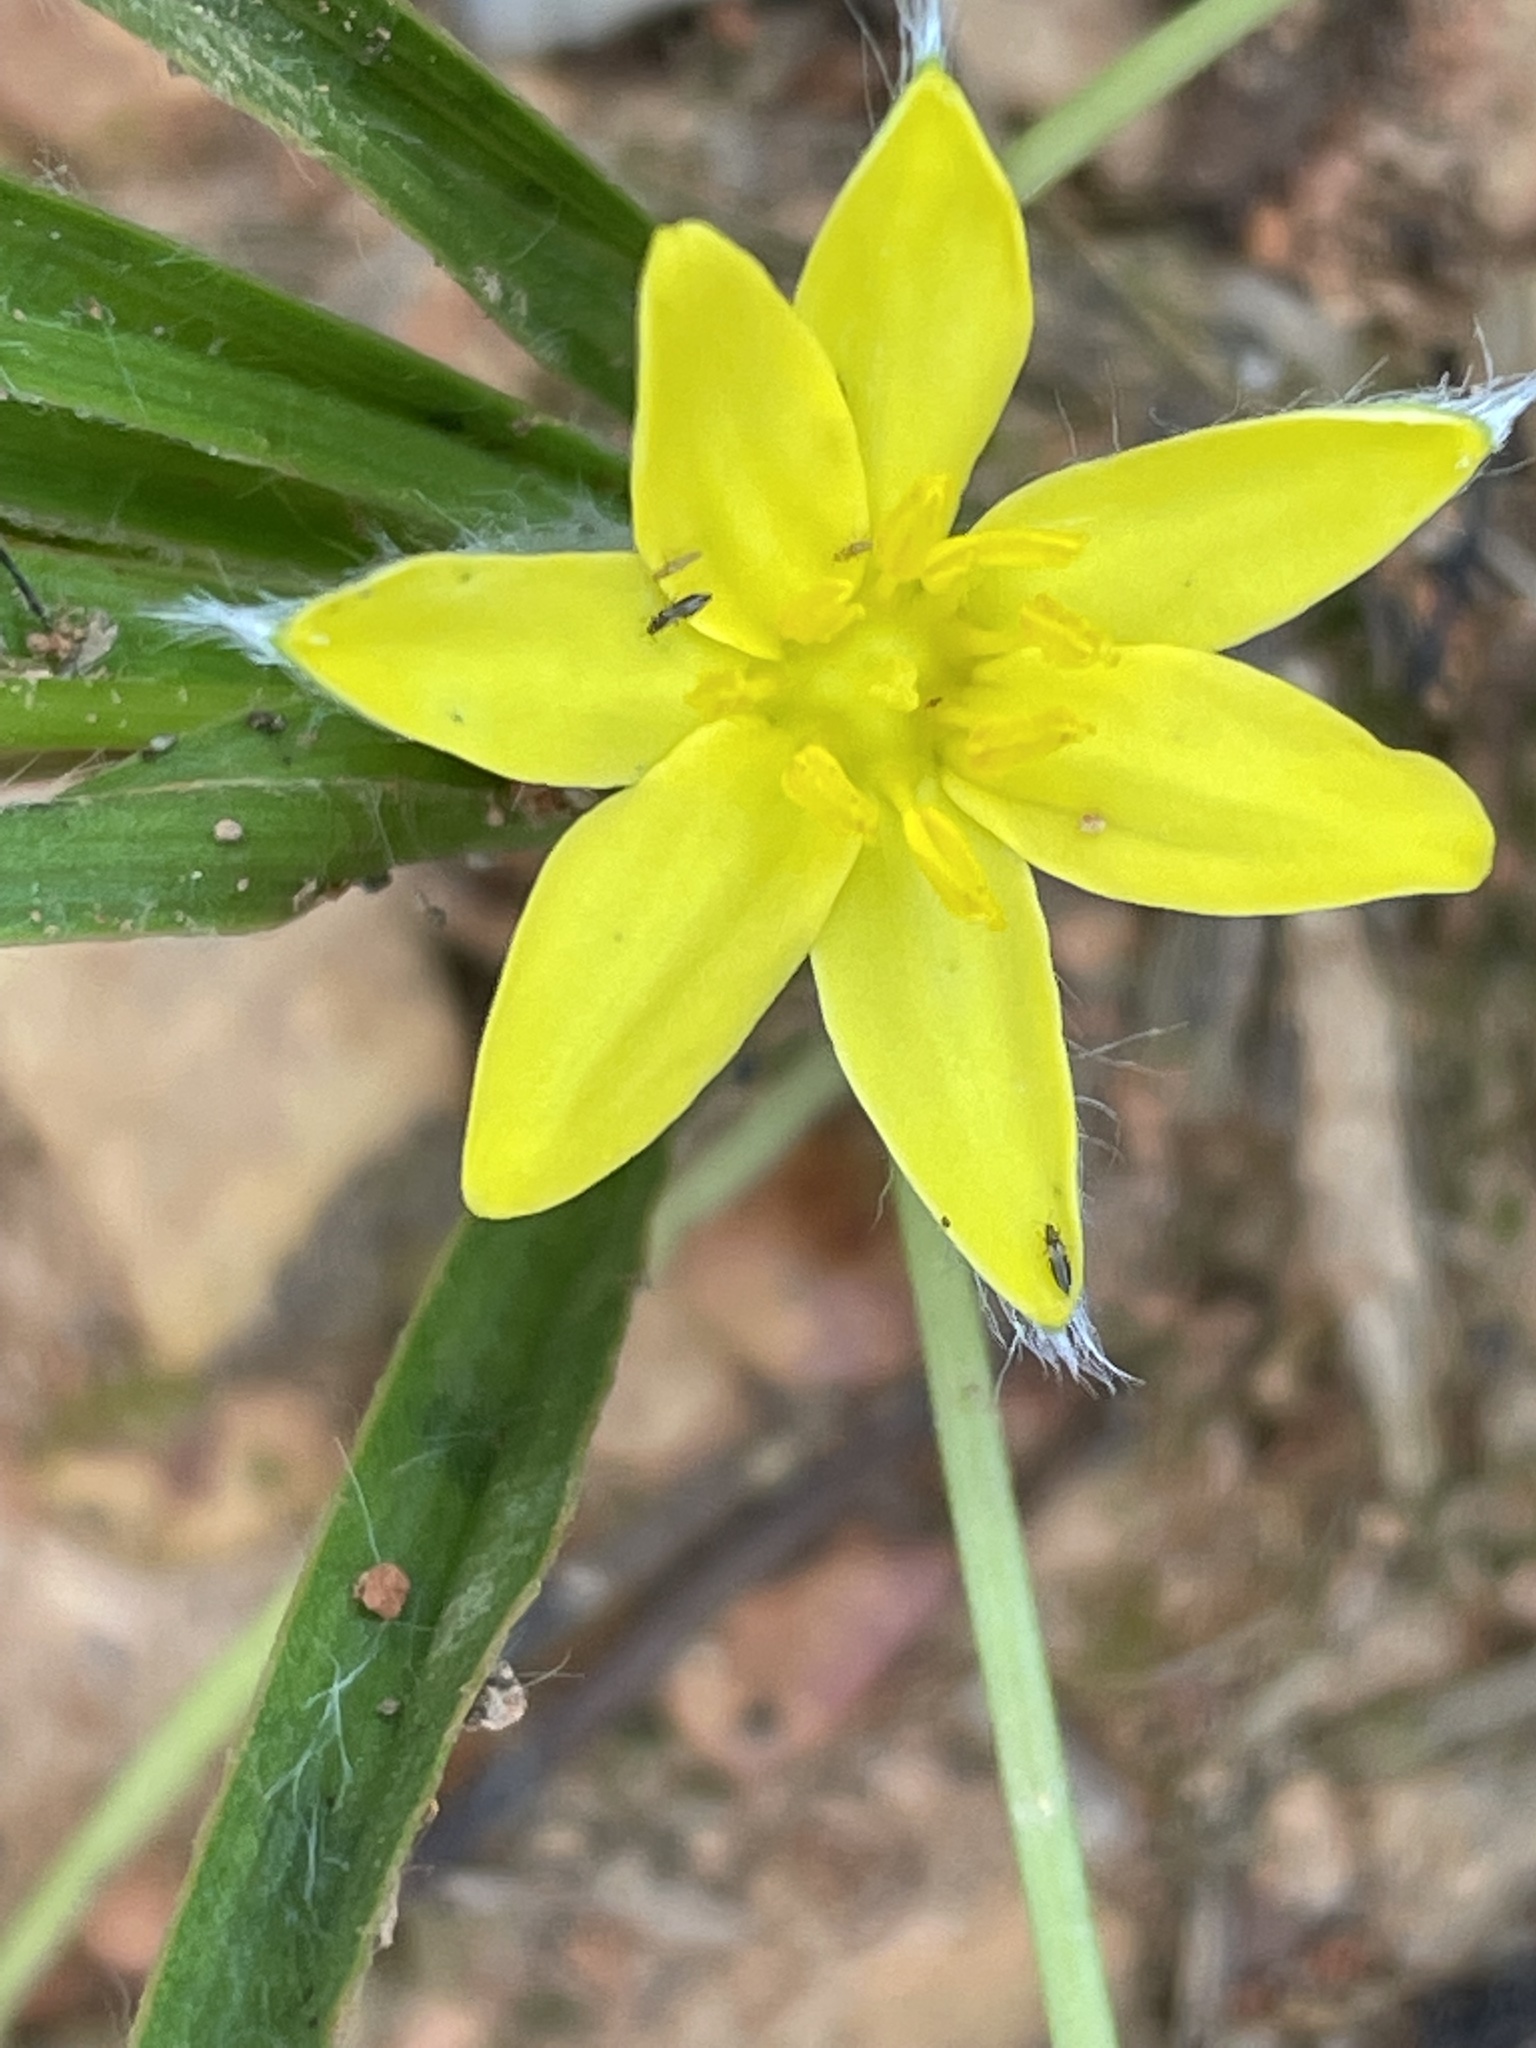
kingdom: Plantae
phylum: Tracheophyta
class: Liliopsida
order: Asparagales
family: Hypoxidaceae
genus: Hypoxis
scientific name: Hypoxis hirsuta
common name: Common goldstar
